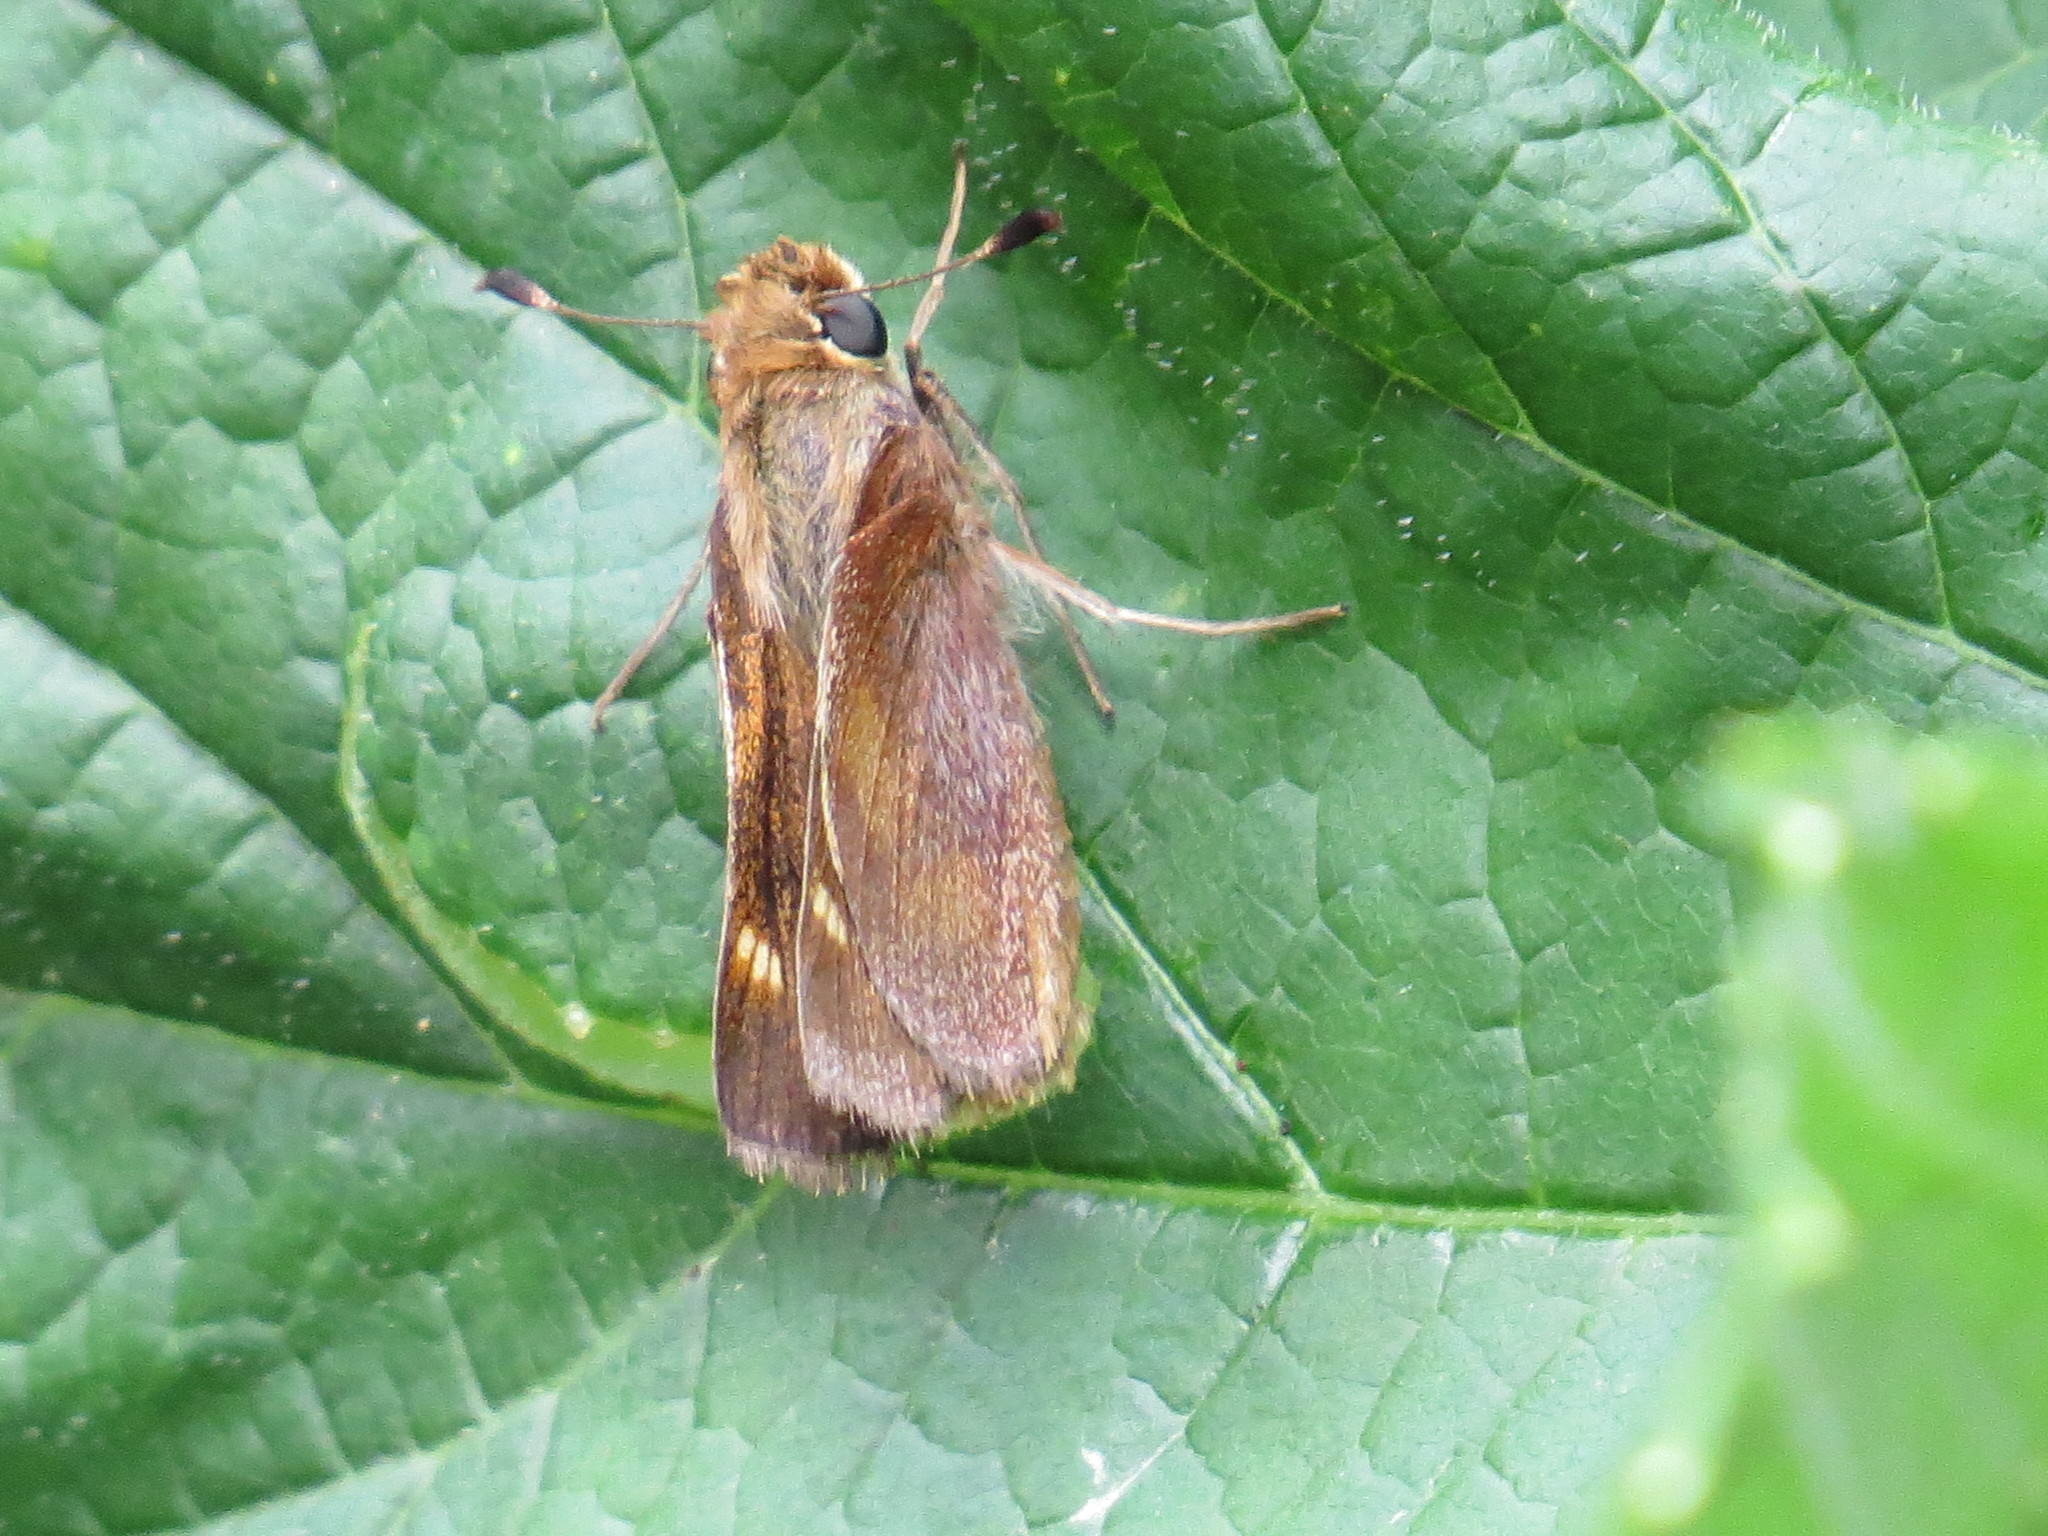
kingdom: Animalia
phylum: Arthropoda
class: Insecta
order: Lepidoptera
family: Hesperiidae
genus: Lon
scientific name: Lon melane
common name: Umber skipper
